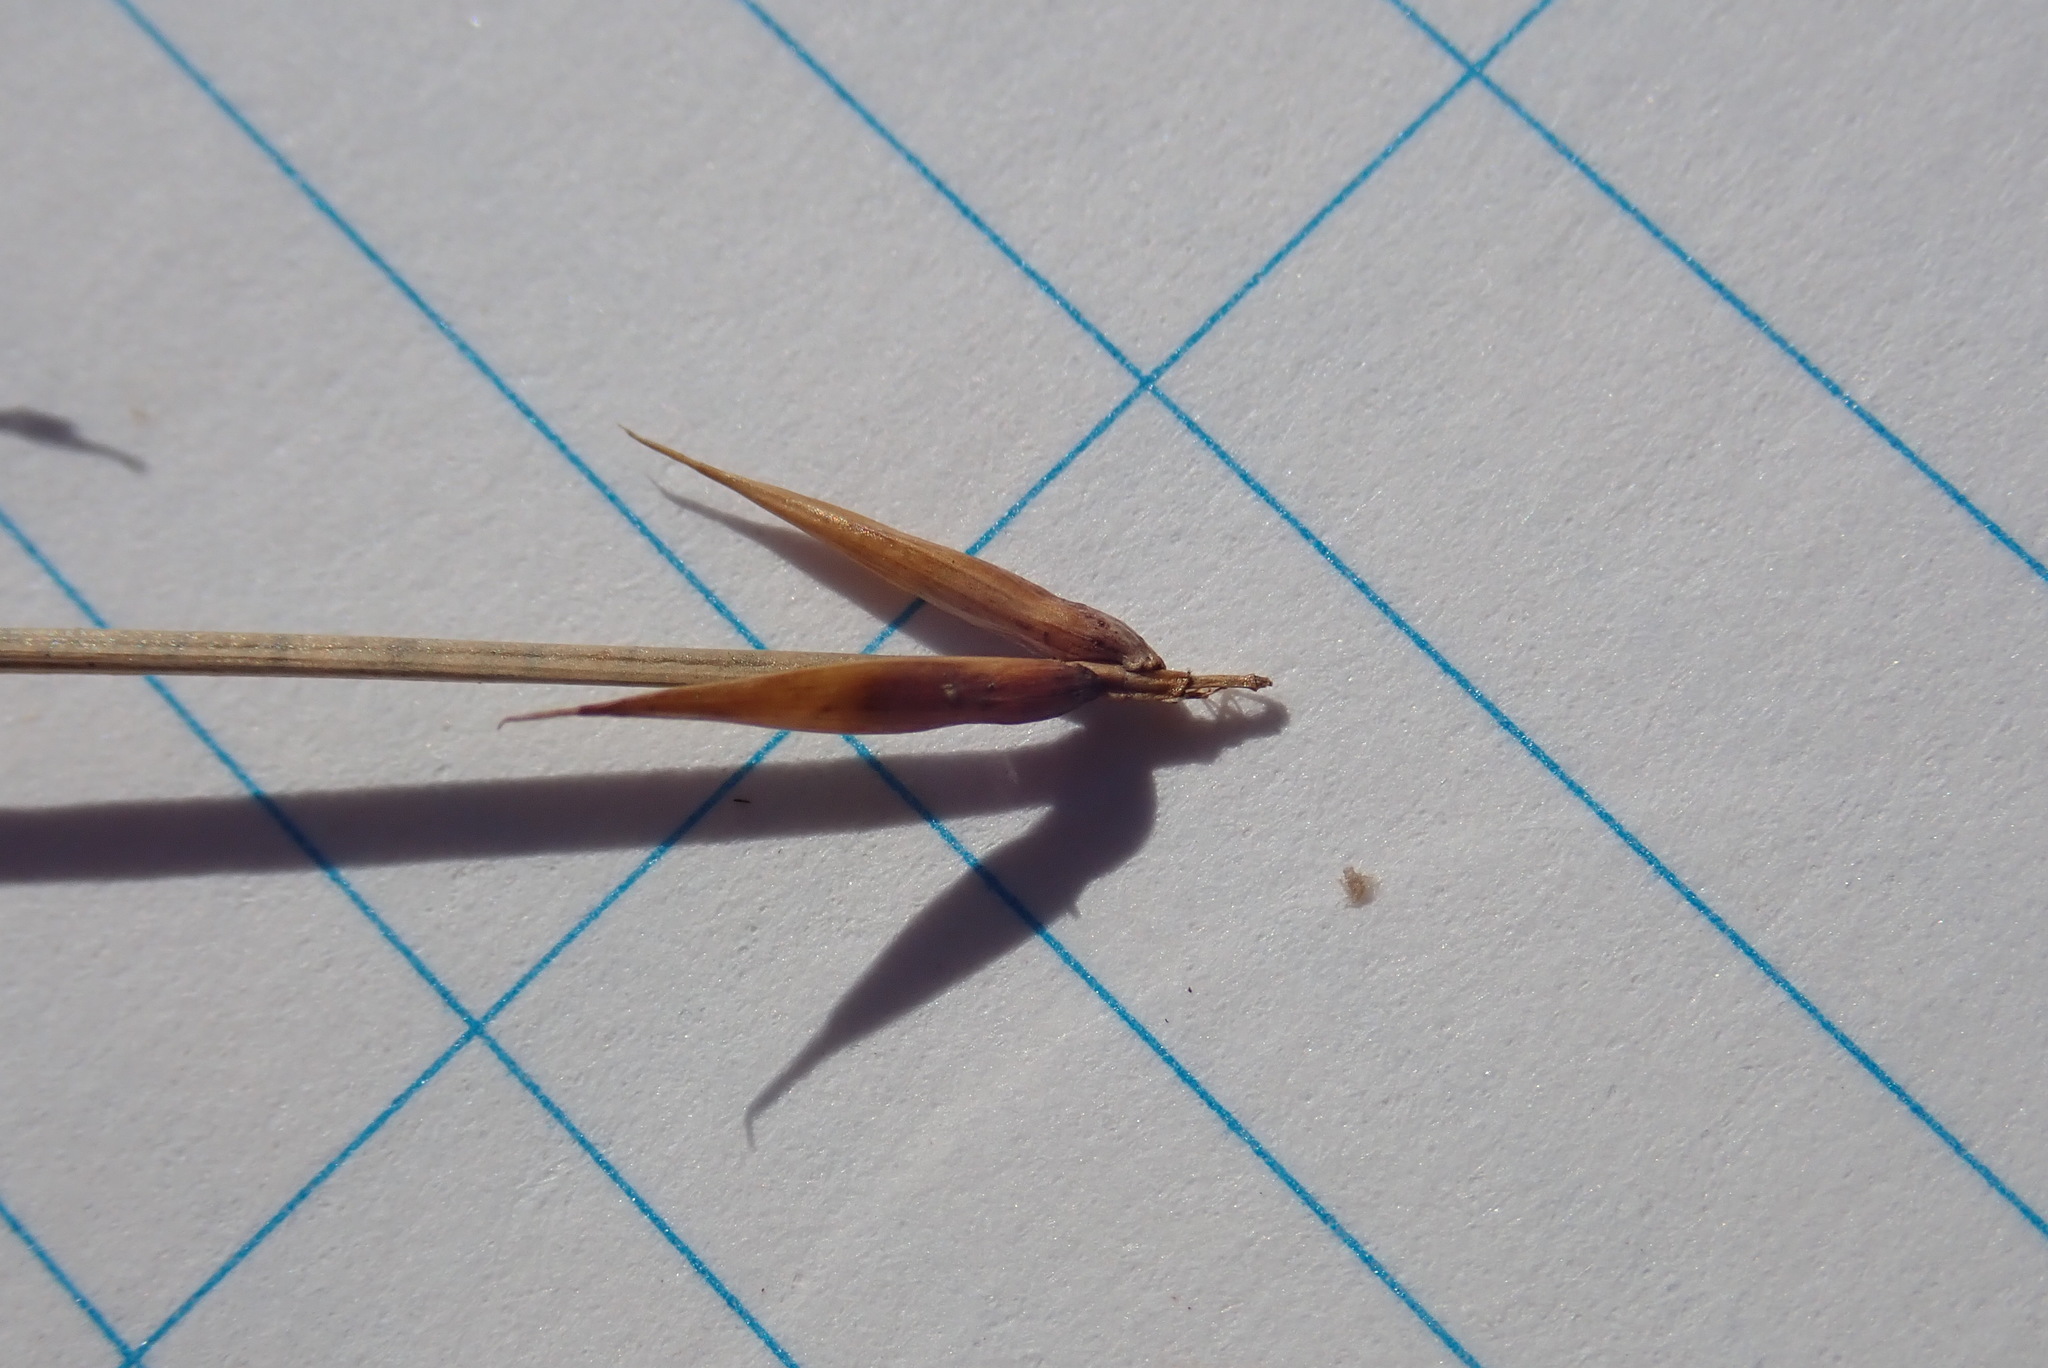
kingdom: Plantae
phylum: Tracheophyta
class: Liliopsida
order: Poales
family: Cyperaceae
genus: Carex
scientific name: Carex pauciflora
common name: Few-flowered sedge
